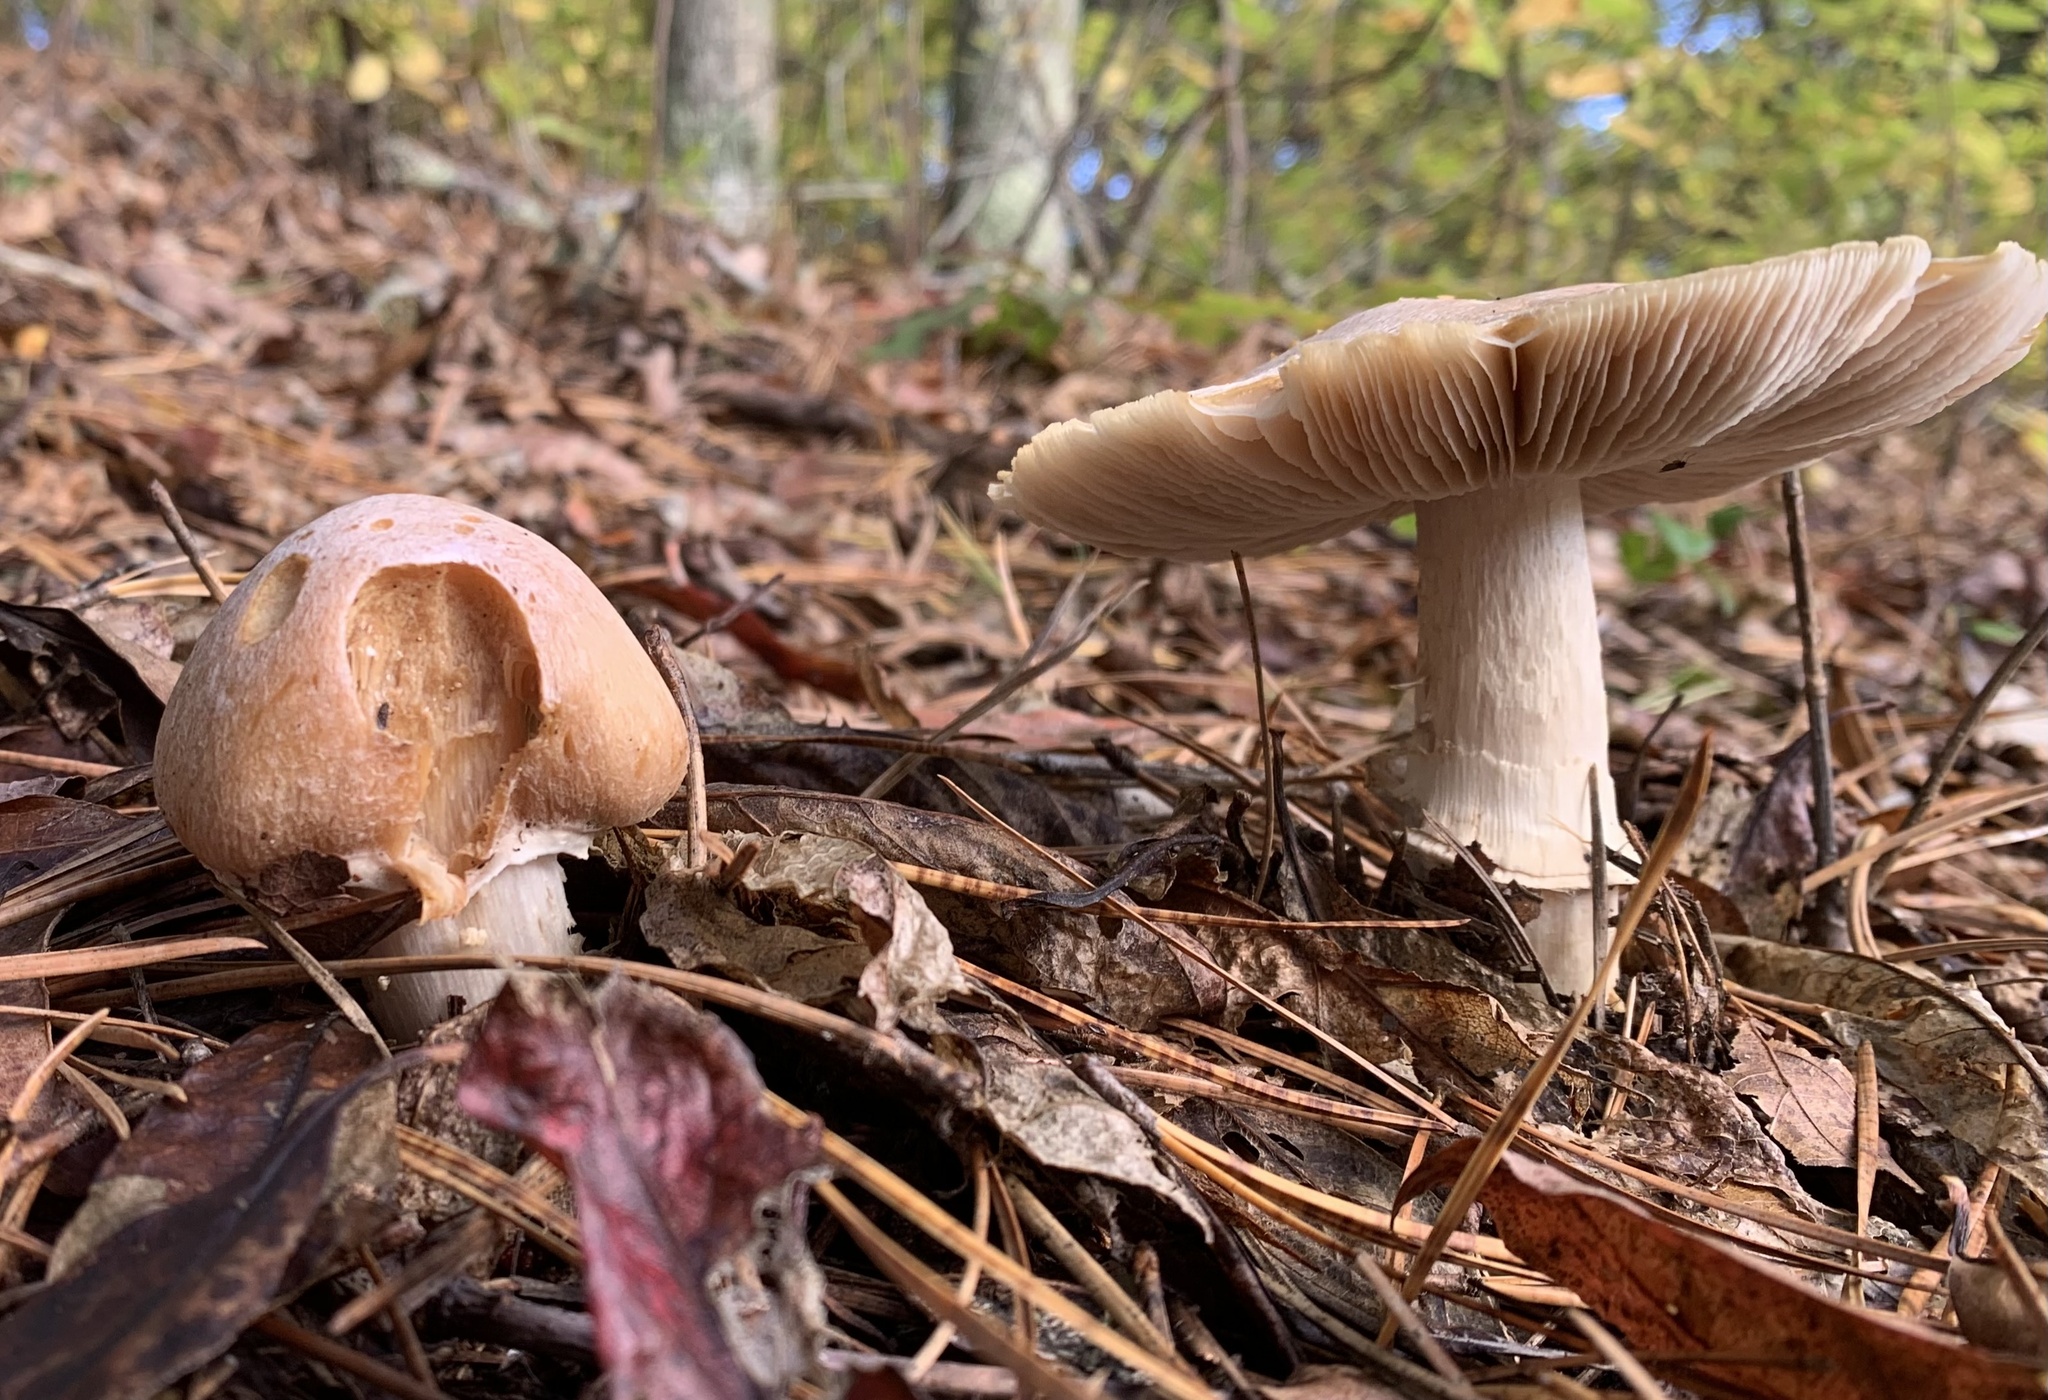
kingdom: Fungi
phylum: Basidiomycota
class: Agaricomycetes
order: Agaricales
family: Cortinariaceae
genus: Cortinarius
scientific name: Cortinarius caperatus
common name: The gypsy
